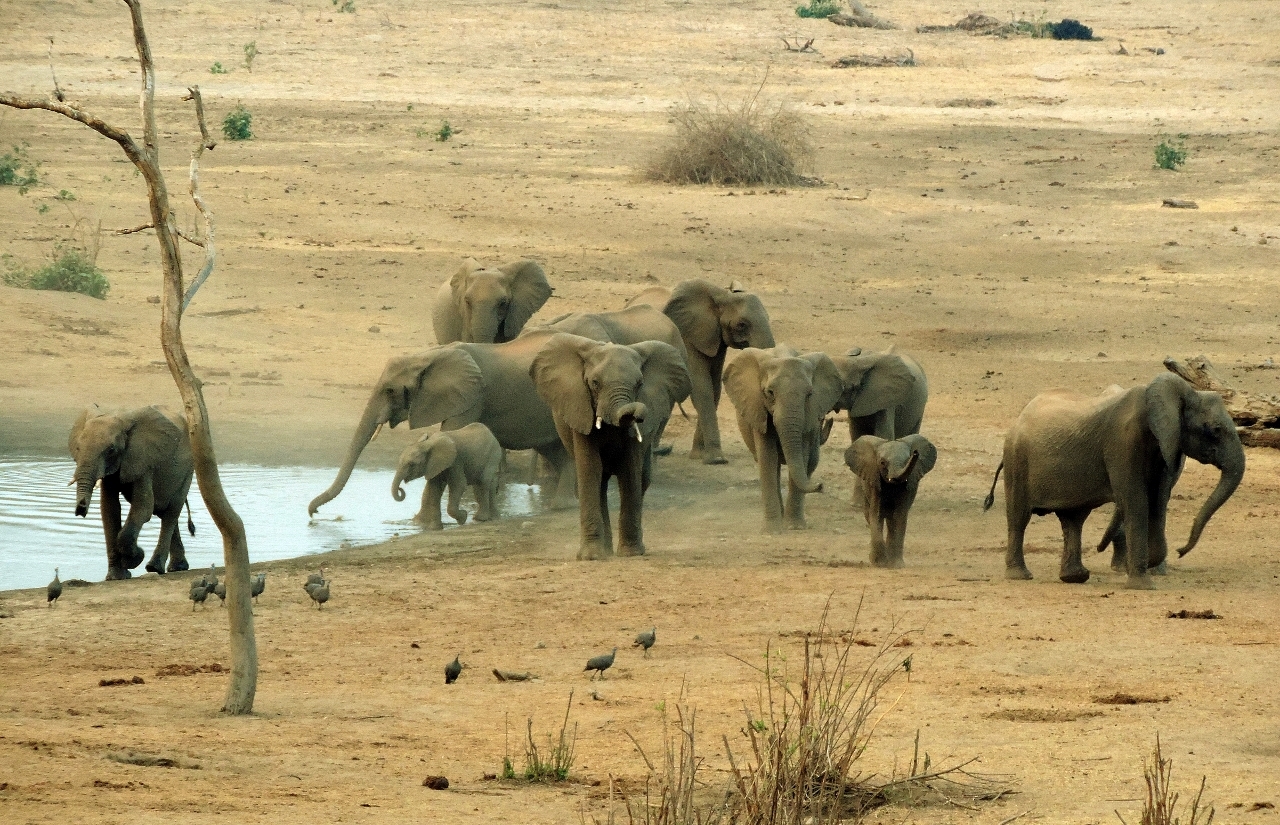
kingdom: Animalia
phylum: Chordata
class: Mammalia
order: Proboscidea
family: Elephantidae
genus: Loxodonta
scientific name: Loxodonta africana
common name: African elephant
